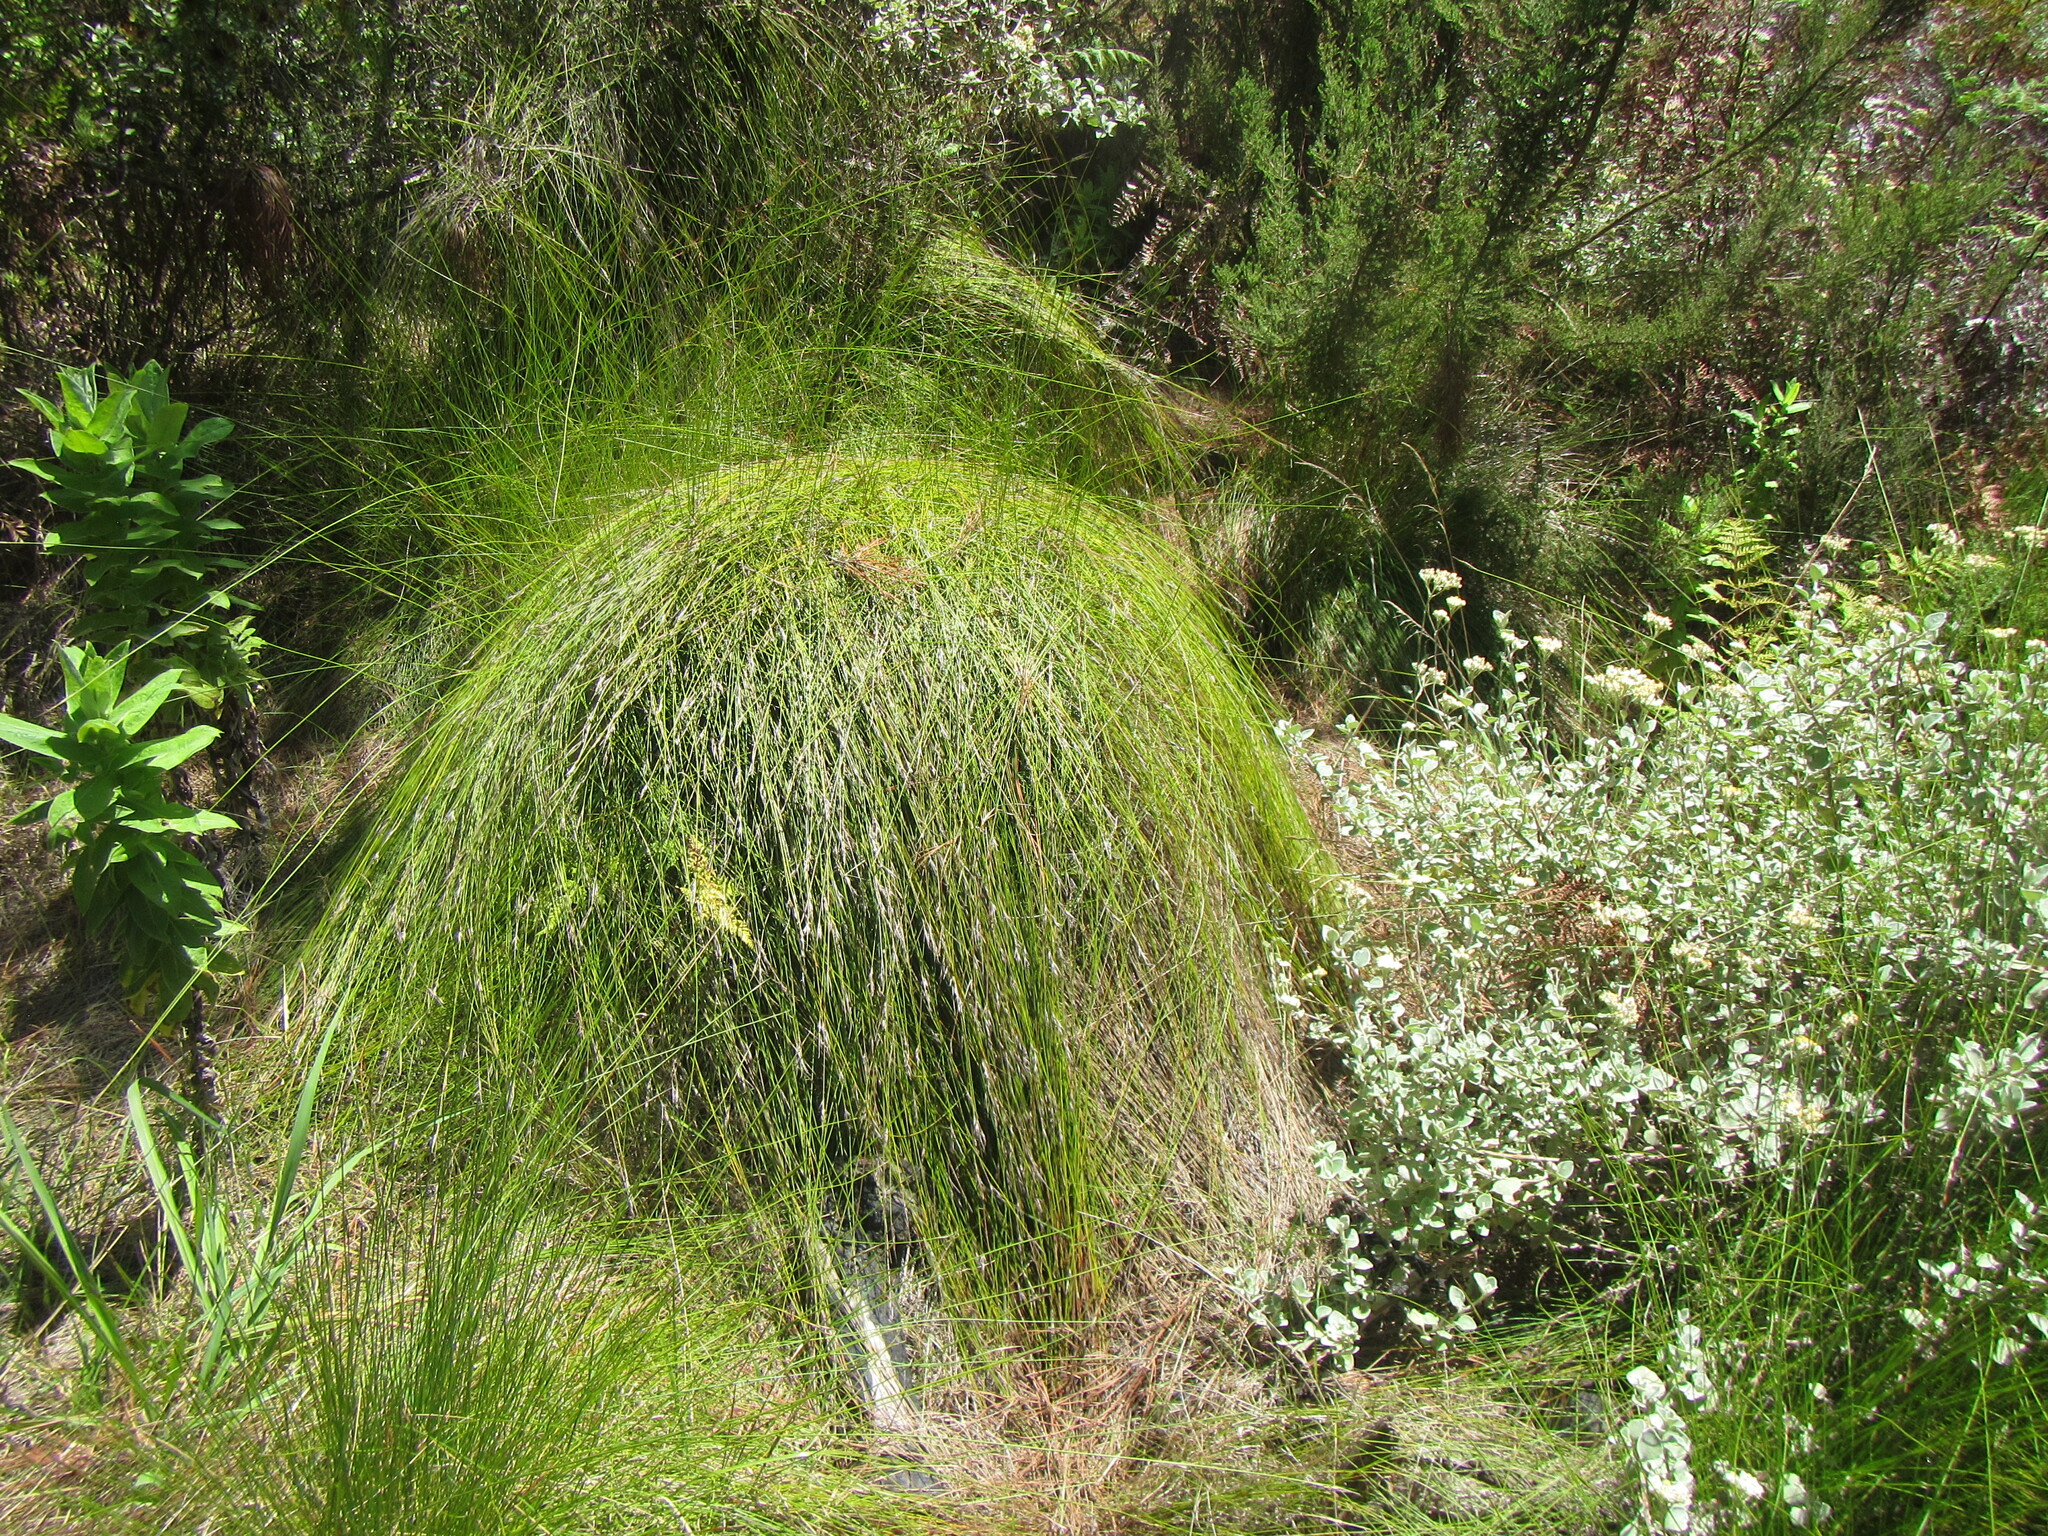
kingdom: Plantae
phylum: Tracheophyta
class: Liliopsida
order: Poales
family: Cyperaceae
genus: Schoenus
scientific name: Schoenus rigidus
